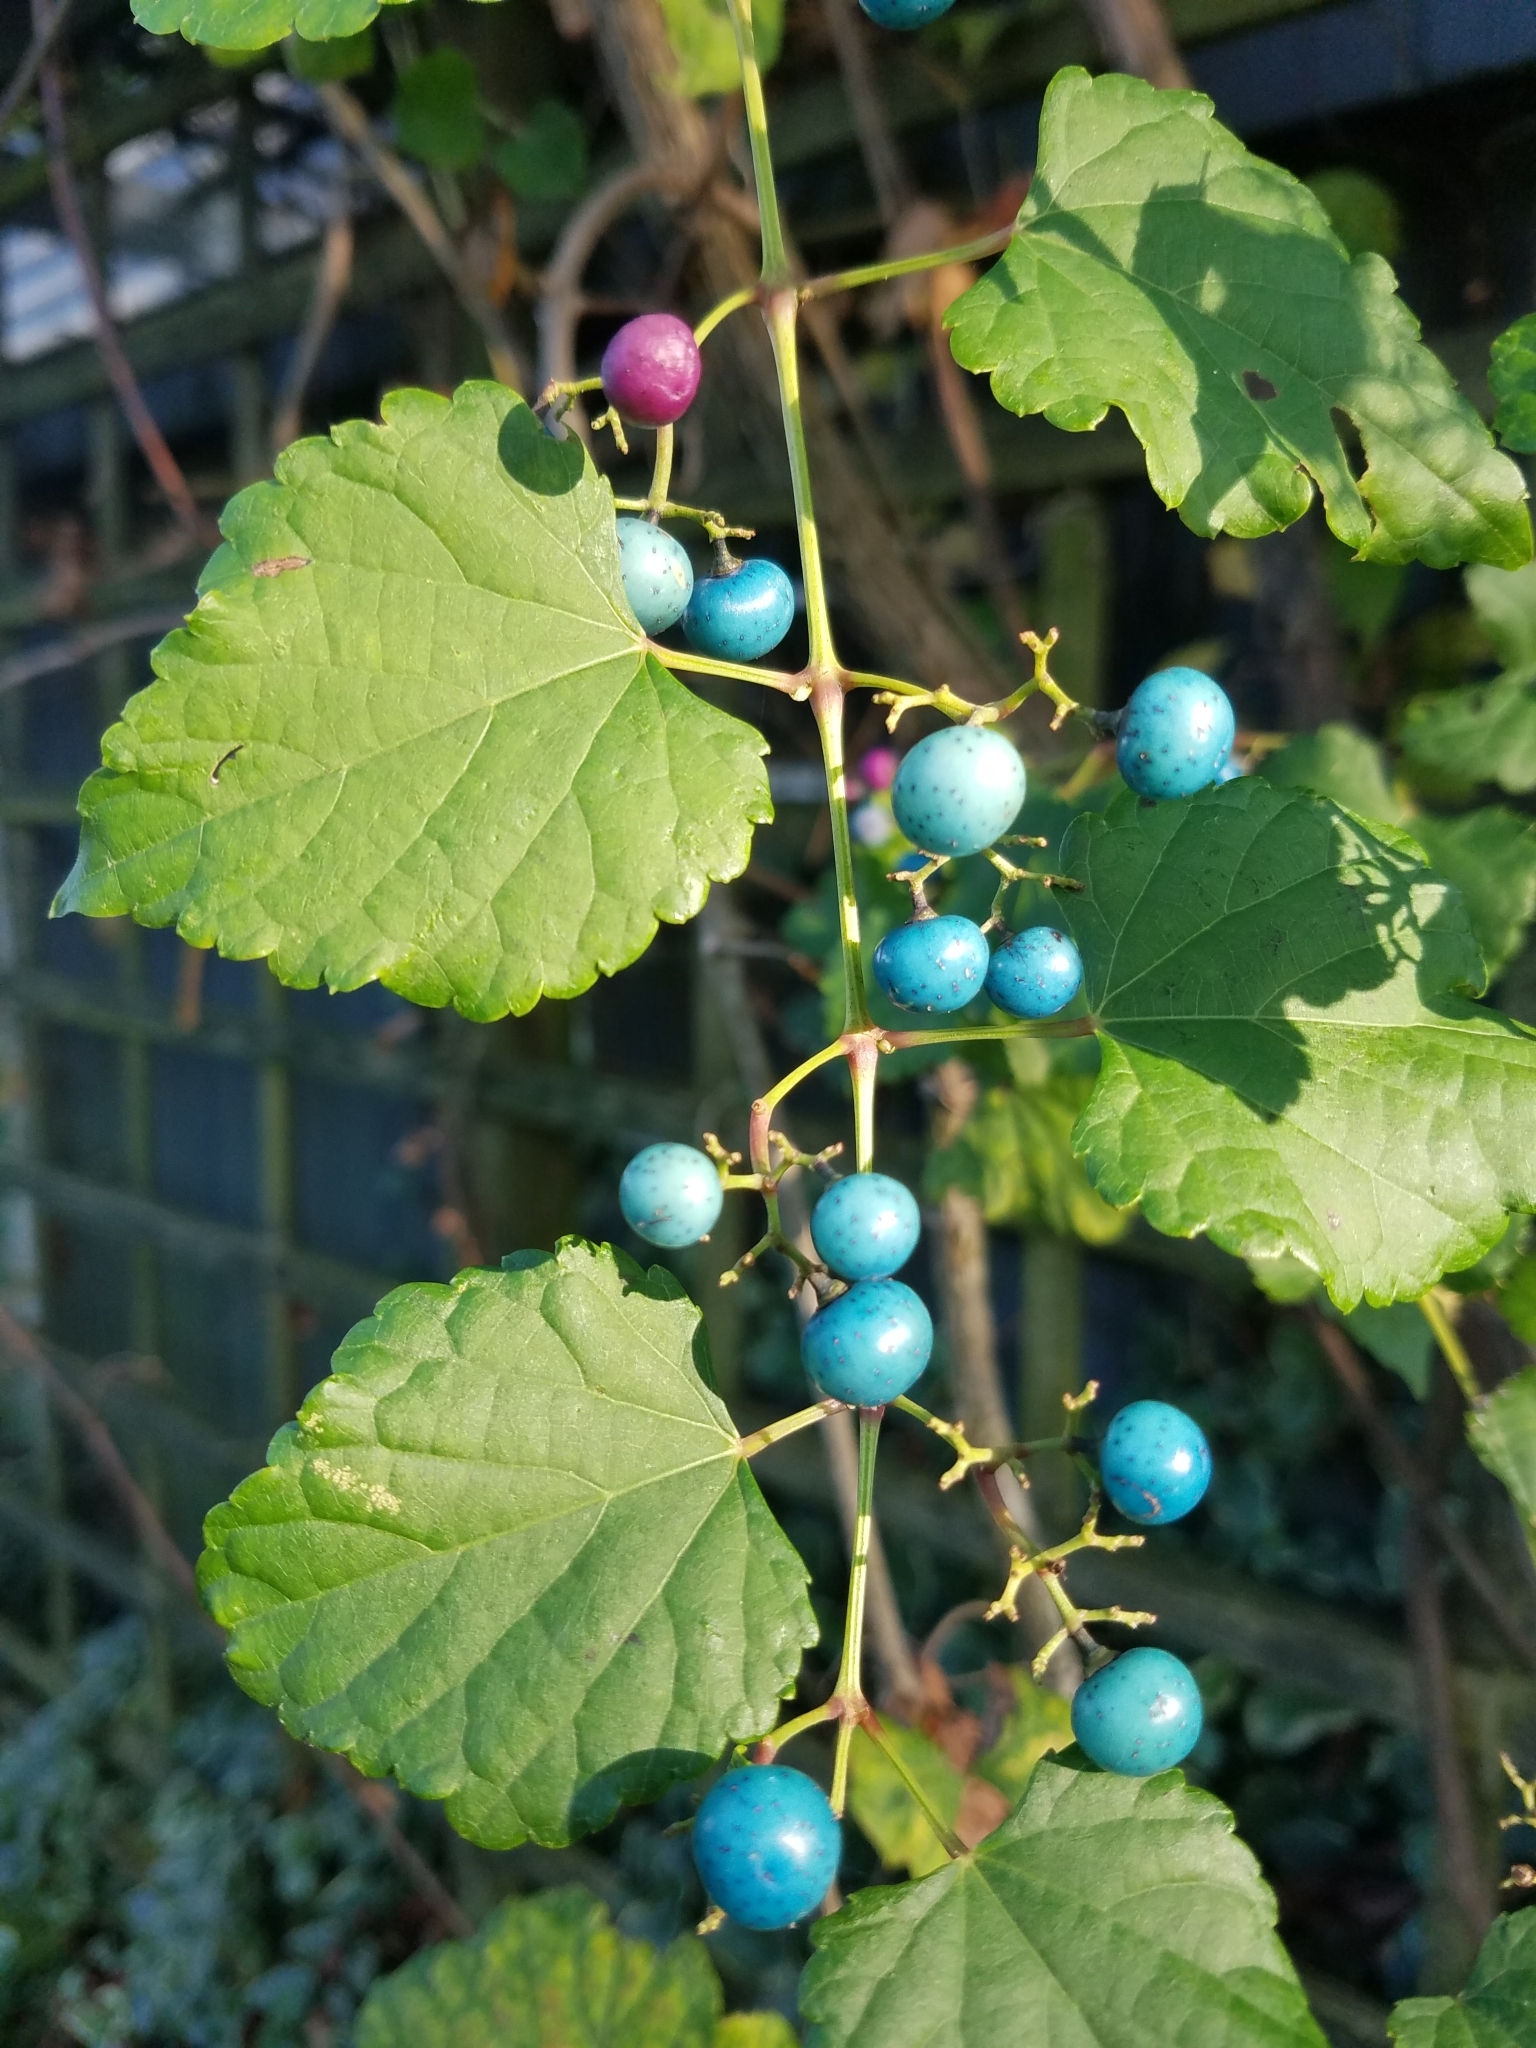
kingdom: Plantae
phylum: Tracheophyta
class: Magnoliopsida
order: Vitales
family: Vitaceae
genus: Ampelopsis
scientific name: Ampelopsis glandulosa
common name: Amur peppervine
